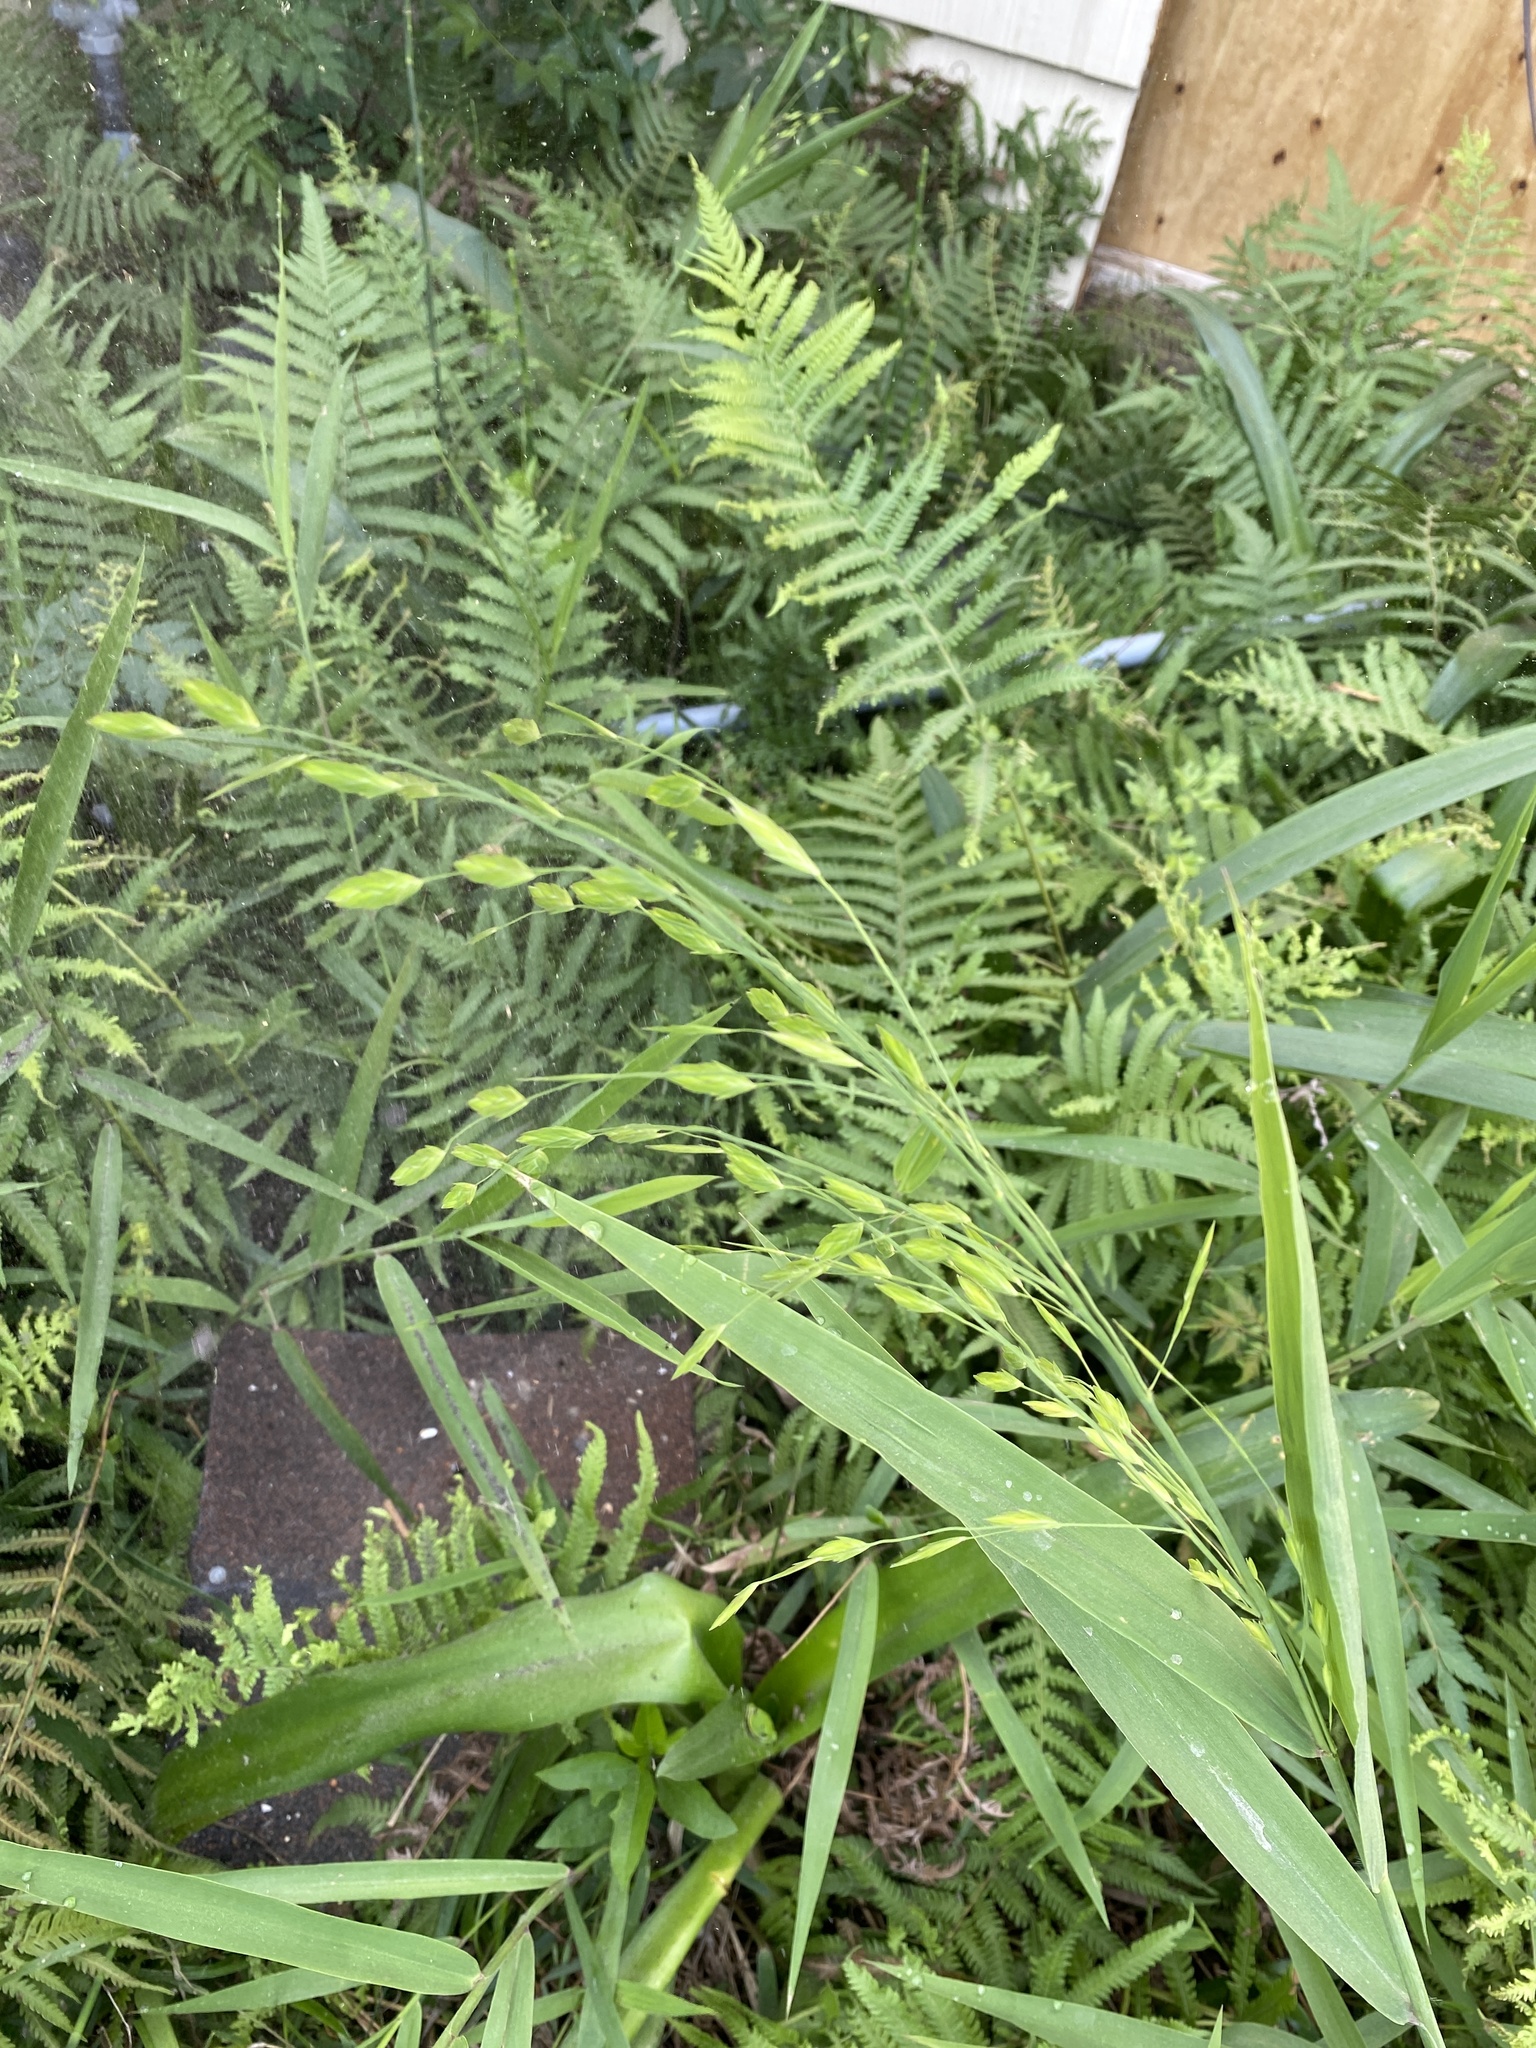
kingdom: Plantae
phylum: Tracheophyta
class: Liliopsida
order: Poales
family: Poaceae
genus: Chasmanthium
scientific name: Chasmanthium latifolium
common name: Broad-leaved chasmanthium
